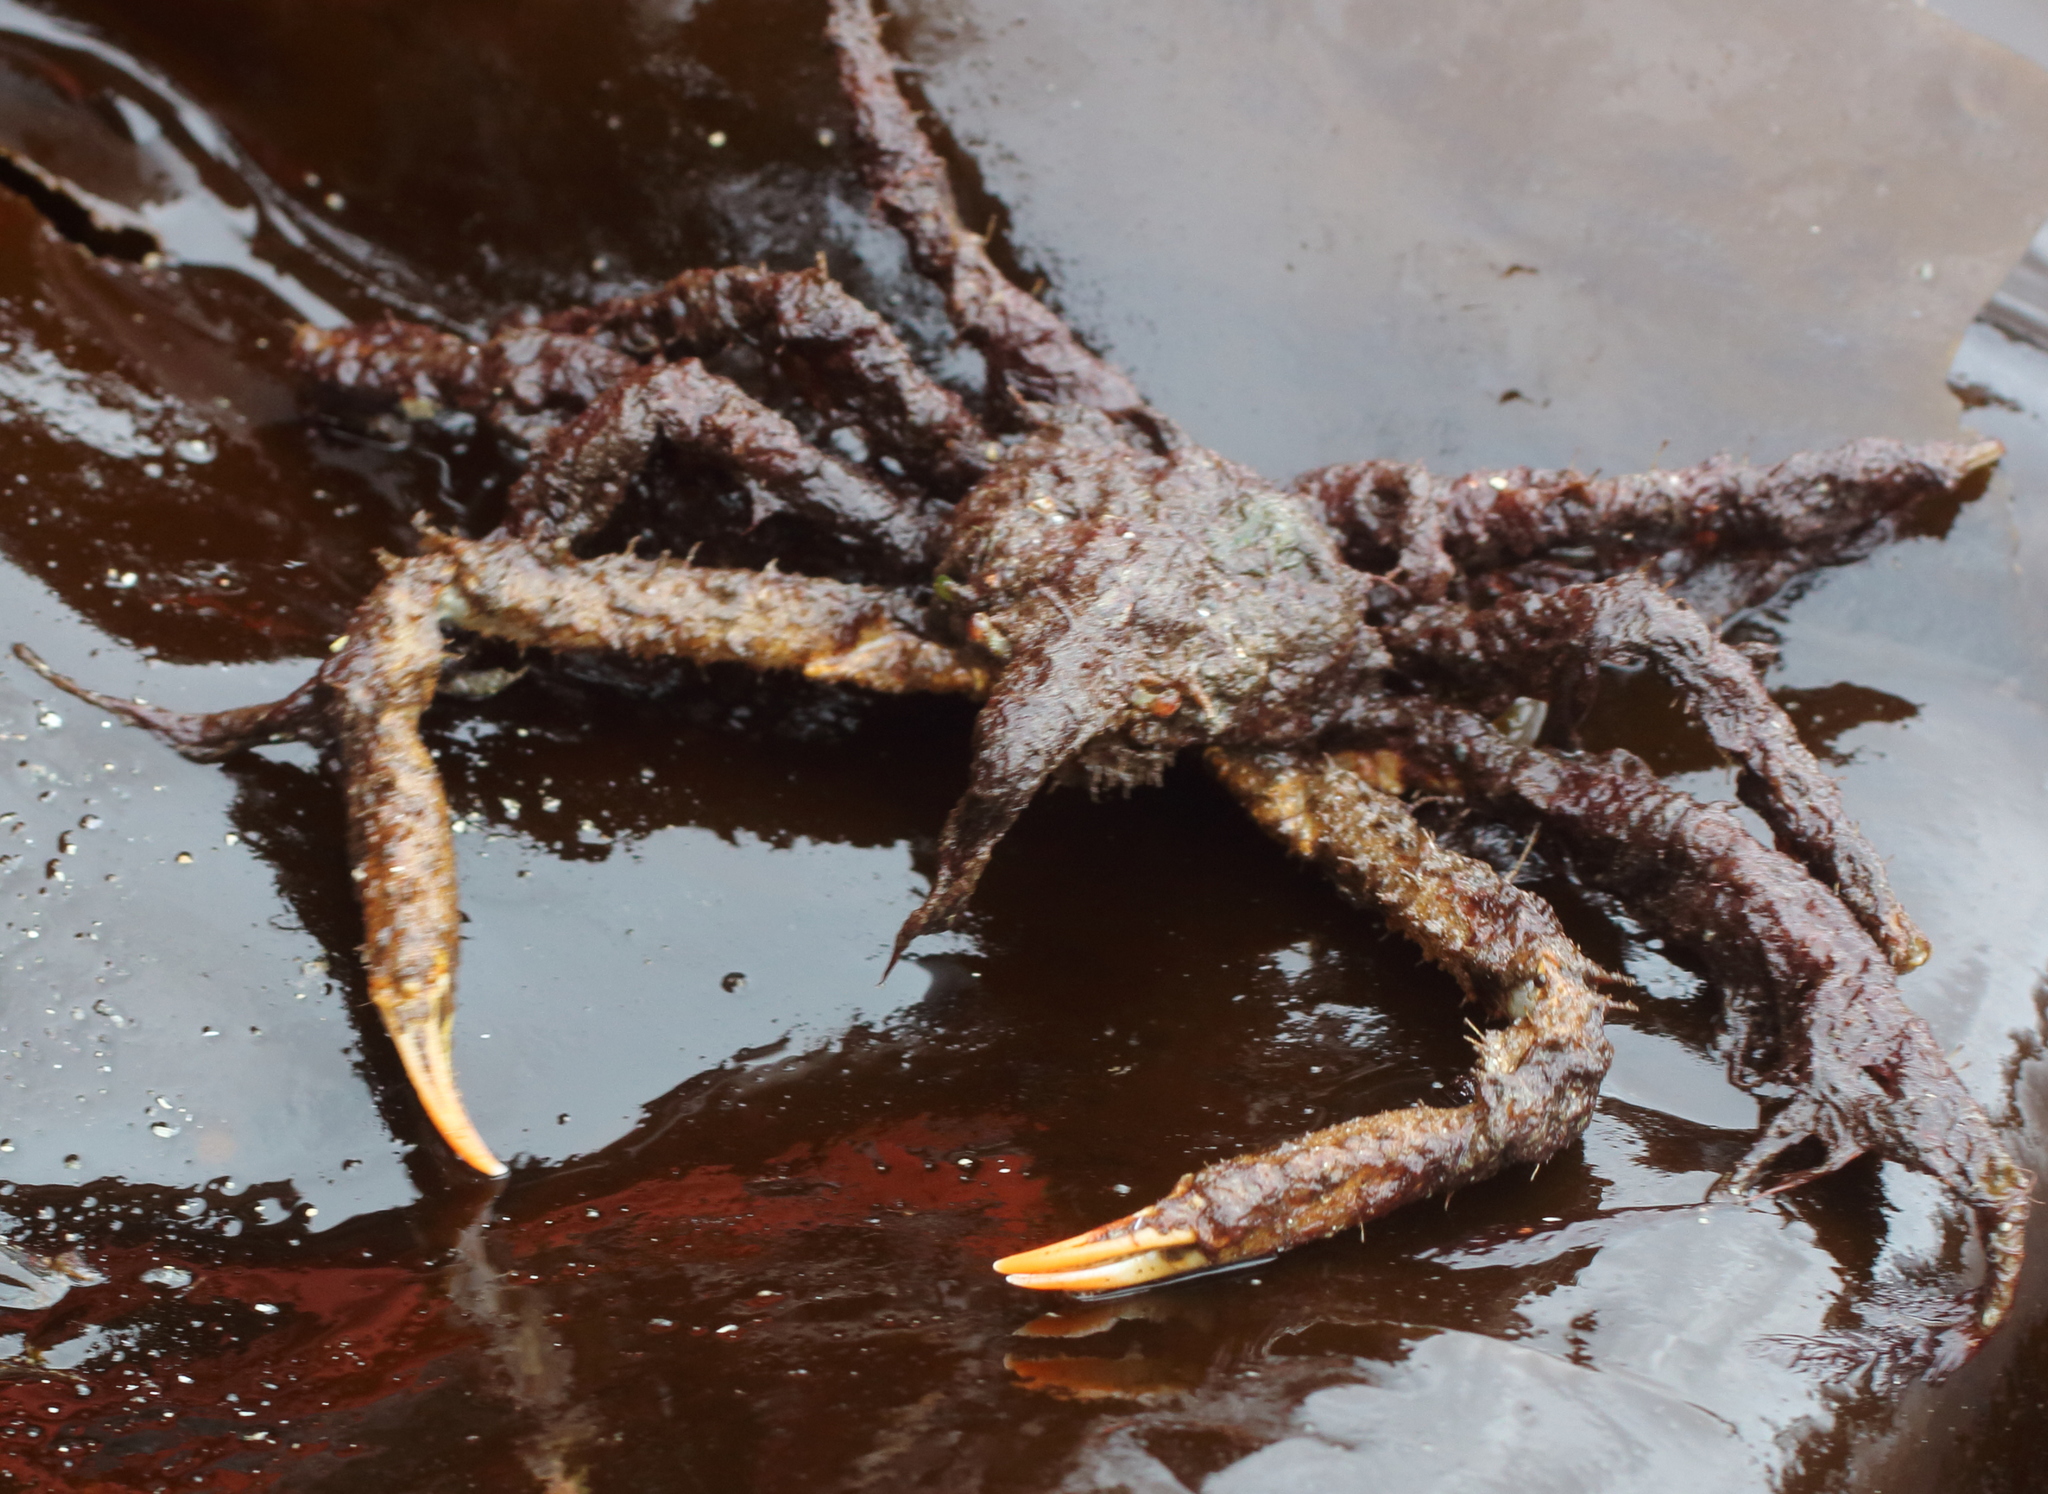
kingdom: Animalia
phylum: Arthropoda
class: Malacostraca
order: Decapoda
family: Oregoniidae
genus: Oregonia
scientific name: Oregonia gracilis
